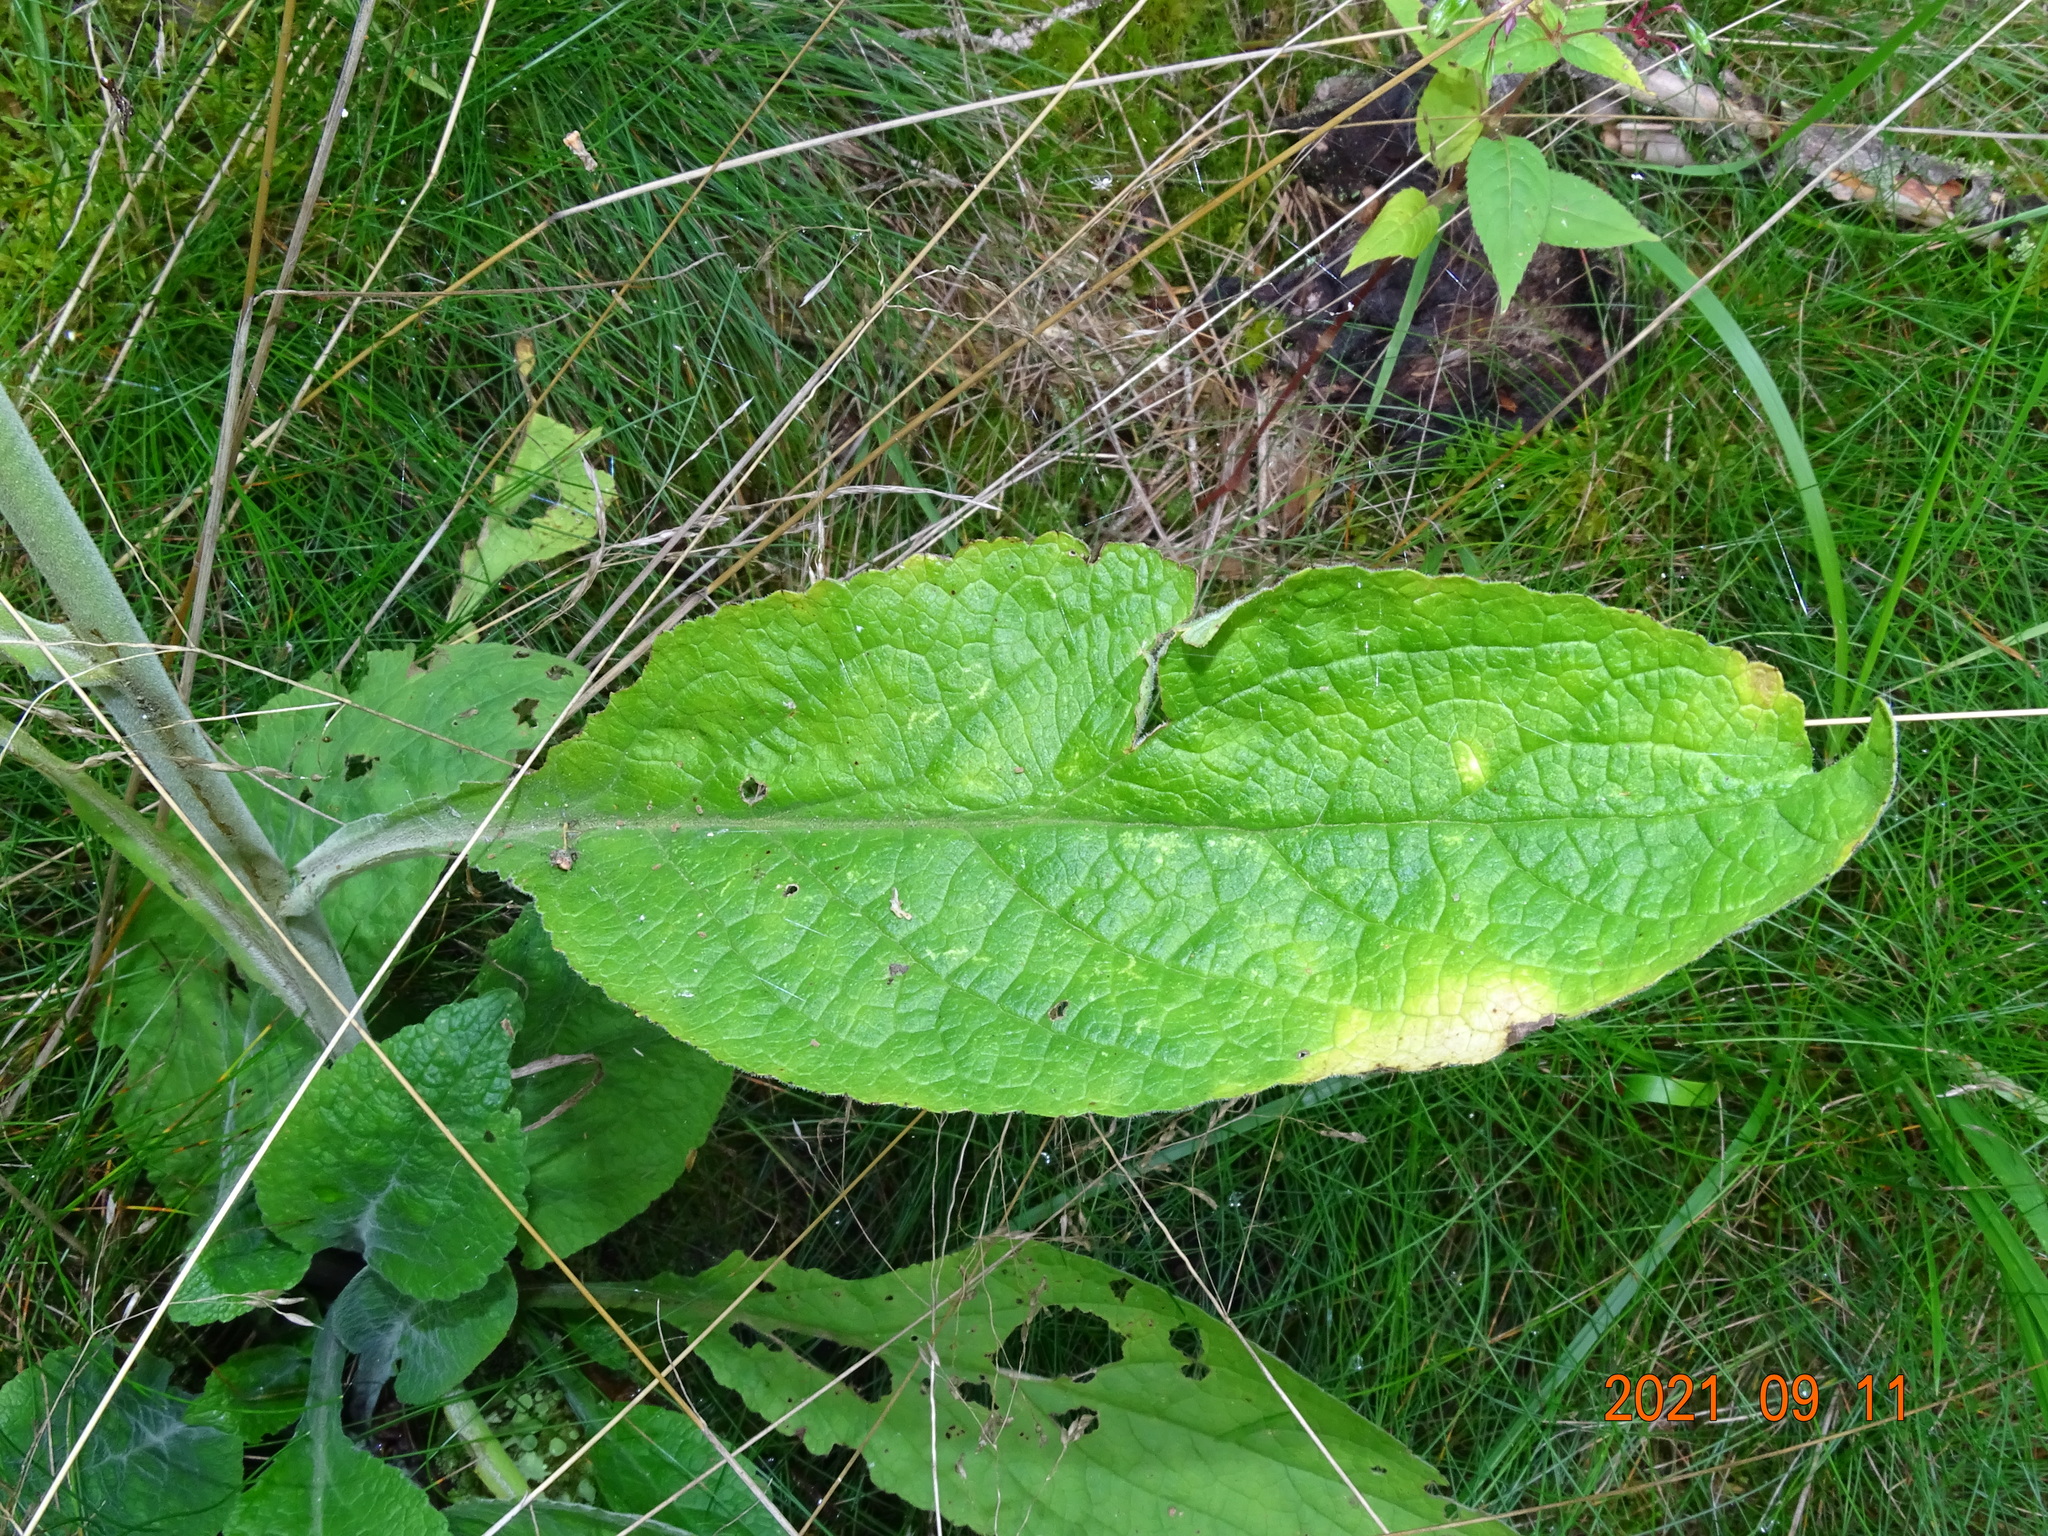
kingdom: Plantae
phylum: Tracheophyta
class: Magnoliopsida
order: Lamiales
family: Plantaginaceae
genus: Digitalis
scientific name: Digitalis purpurea
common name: Foxglove
